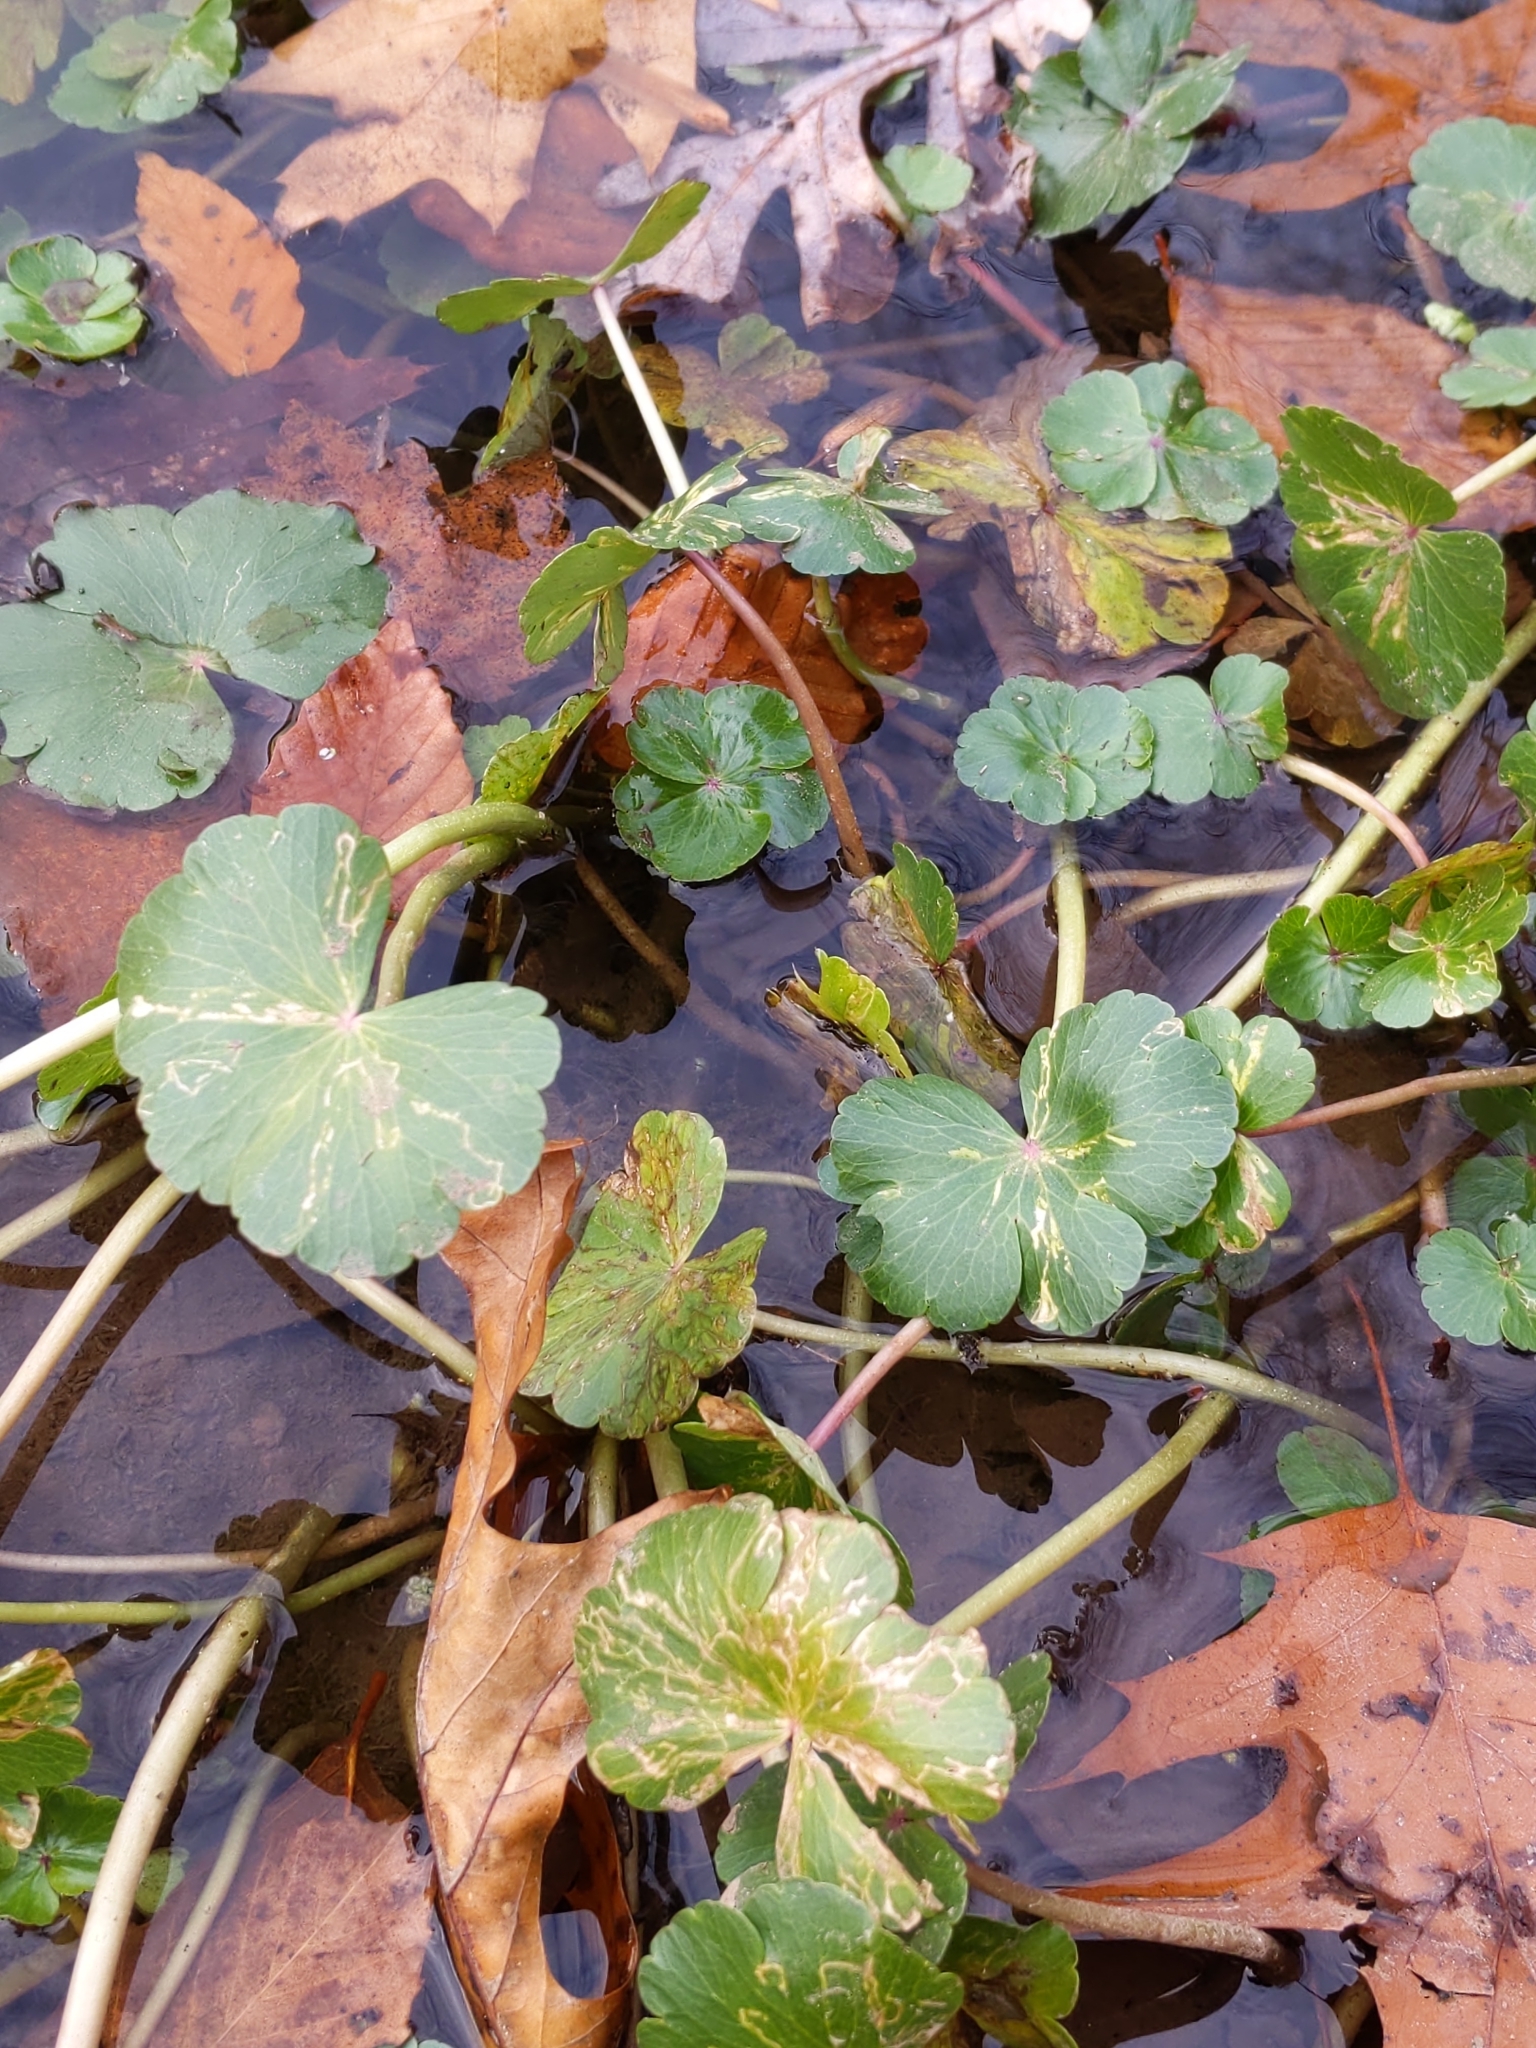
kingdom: Animalia
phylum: Arthropoda
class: Insecta
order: Diptera
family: Chloropidae
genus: Eugaurax
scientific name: Eugaurax floridensis
